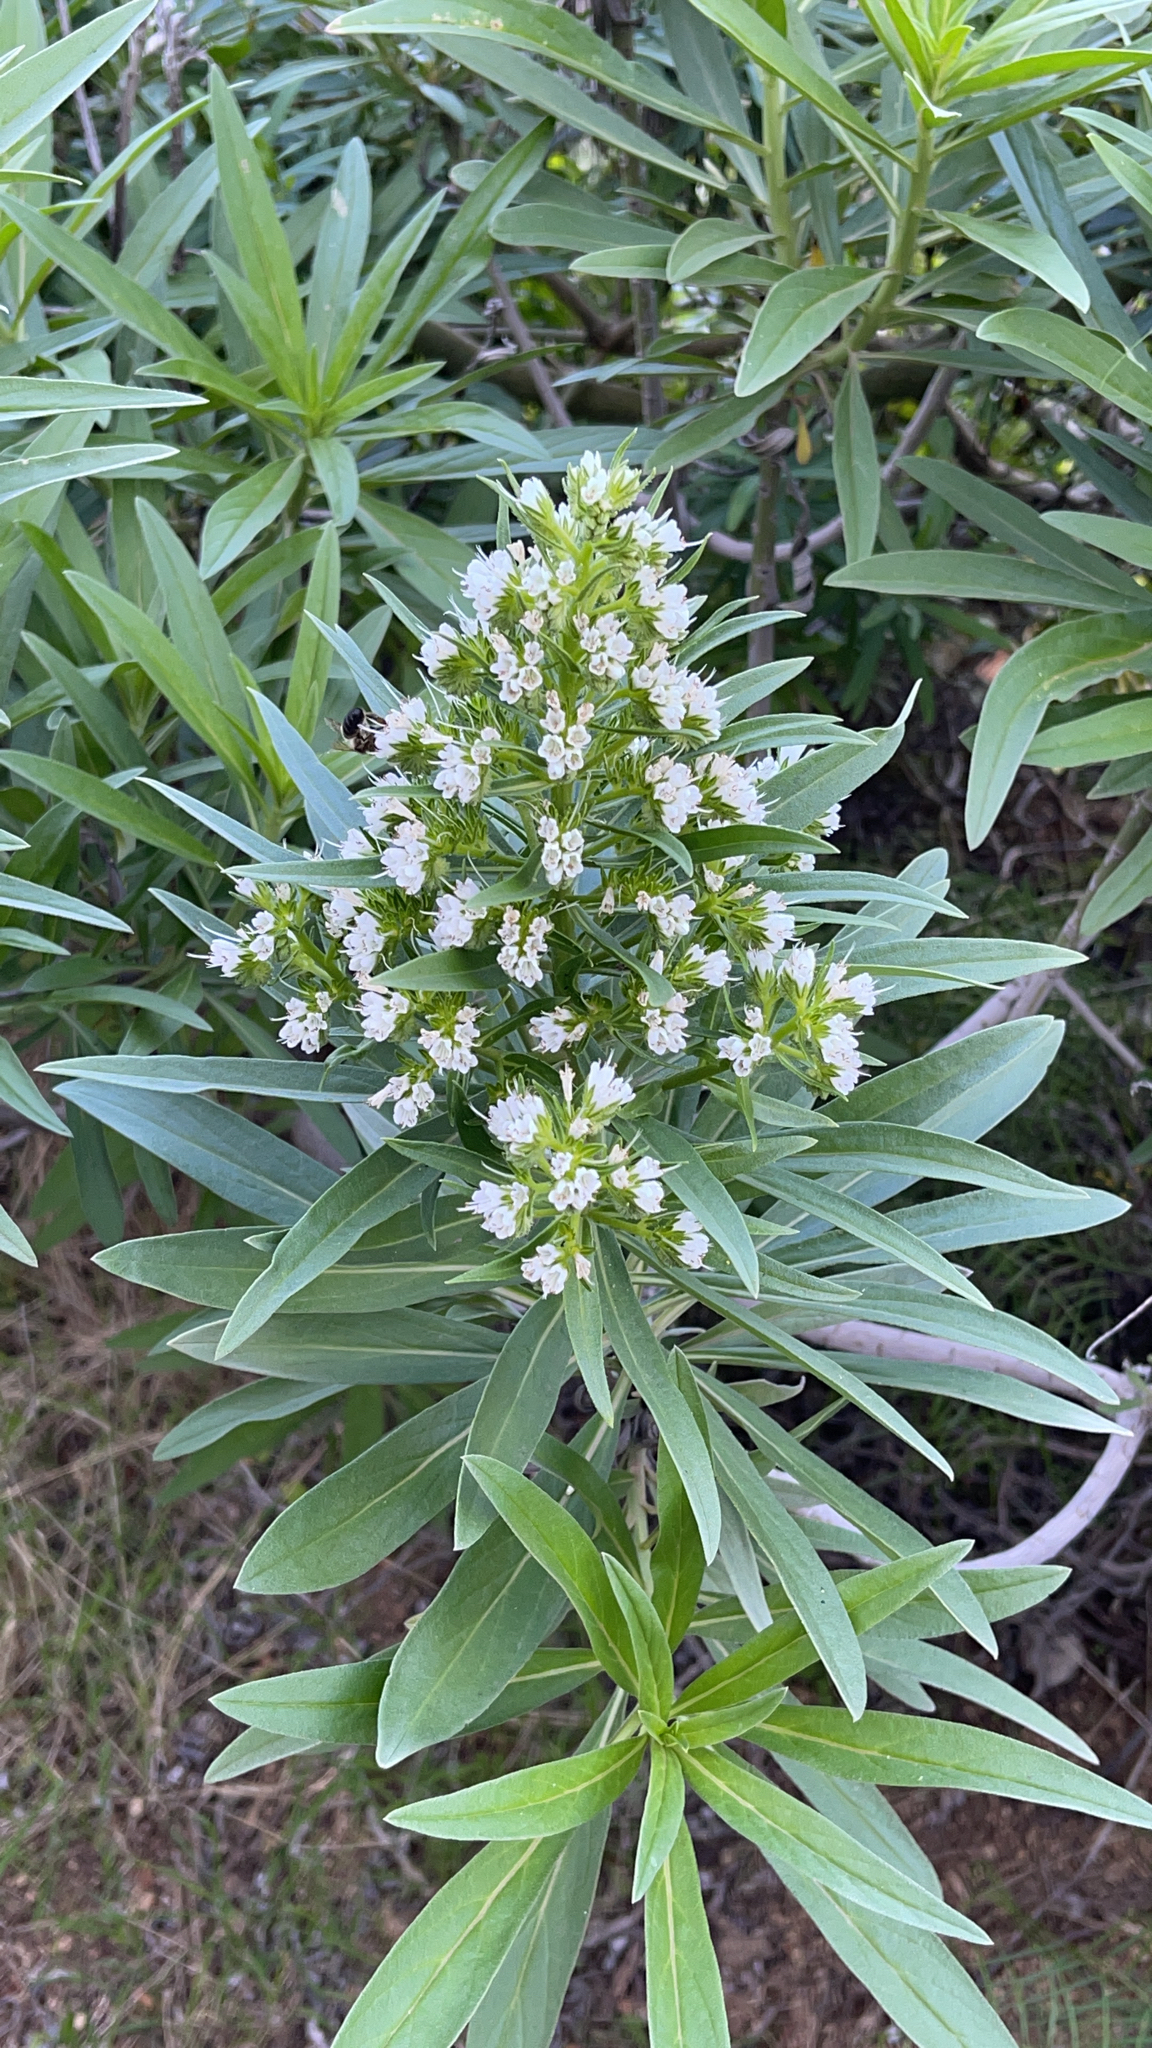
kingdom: Plantae
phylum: Tracheophyta
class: Magnoliopsida
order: Boraginales
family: Boraginaceae
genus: Echium
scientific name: Echium giganteum
